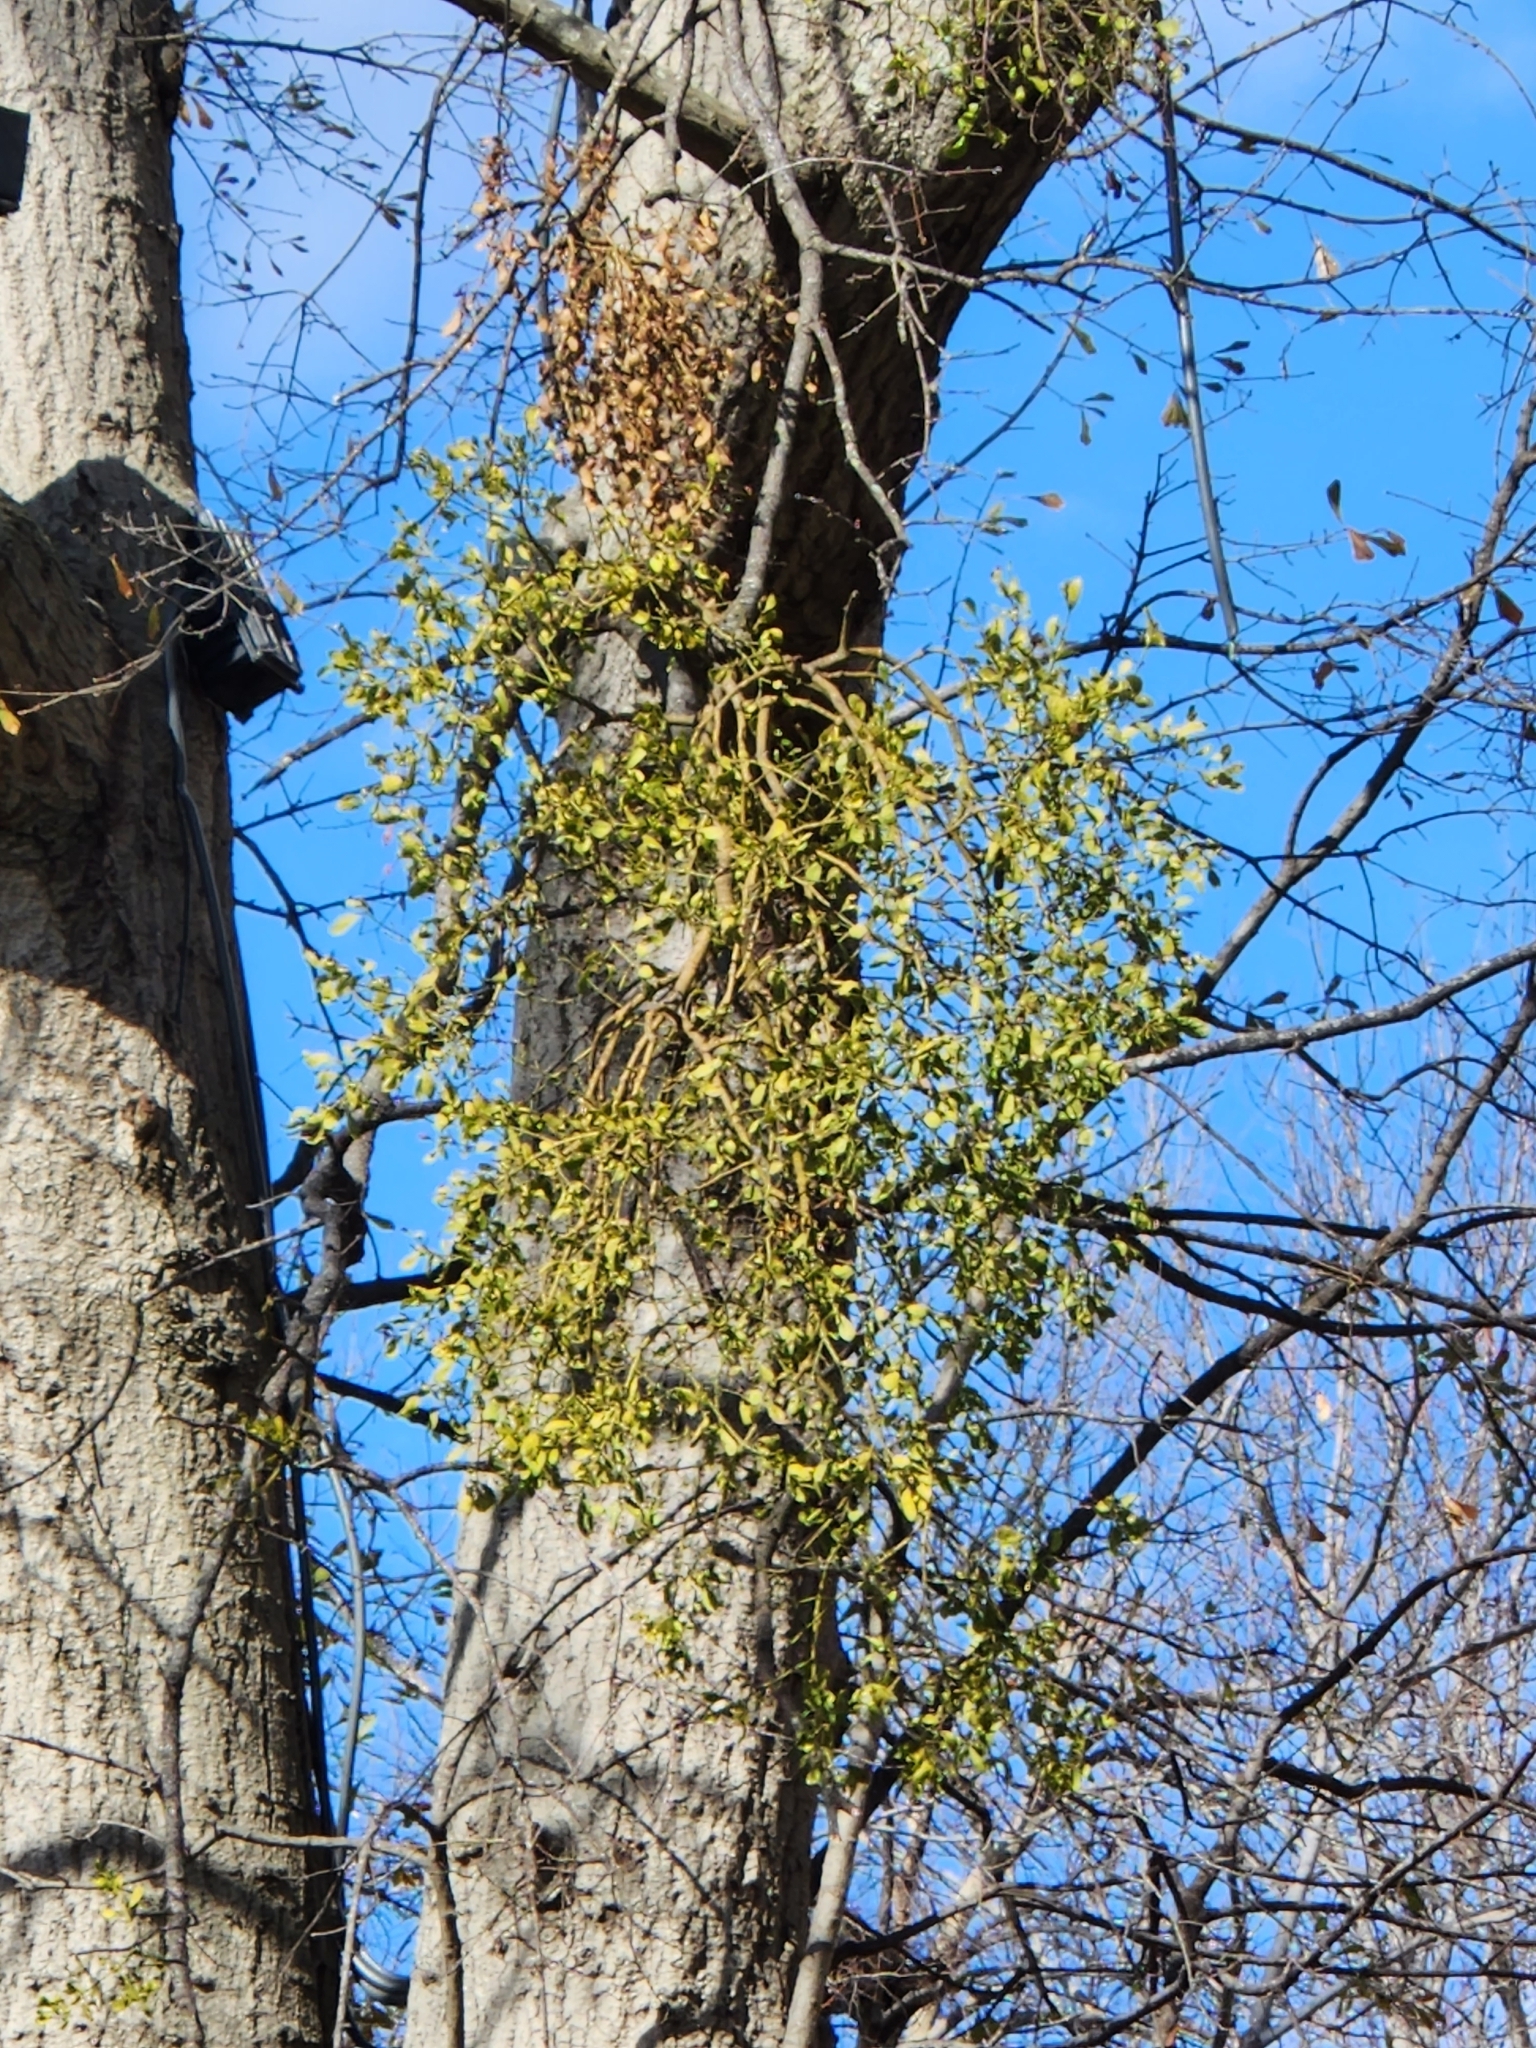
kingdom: Plantae
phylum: Tracheophyta
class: Magnoliopsida
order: Santalales
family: Viscaceae
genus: Phoradendron
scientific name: Phoradendron leucarpum
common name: Pacific mistletoe
